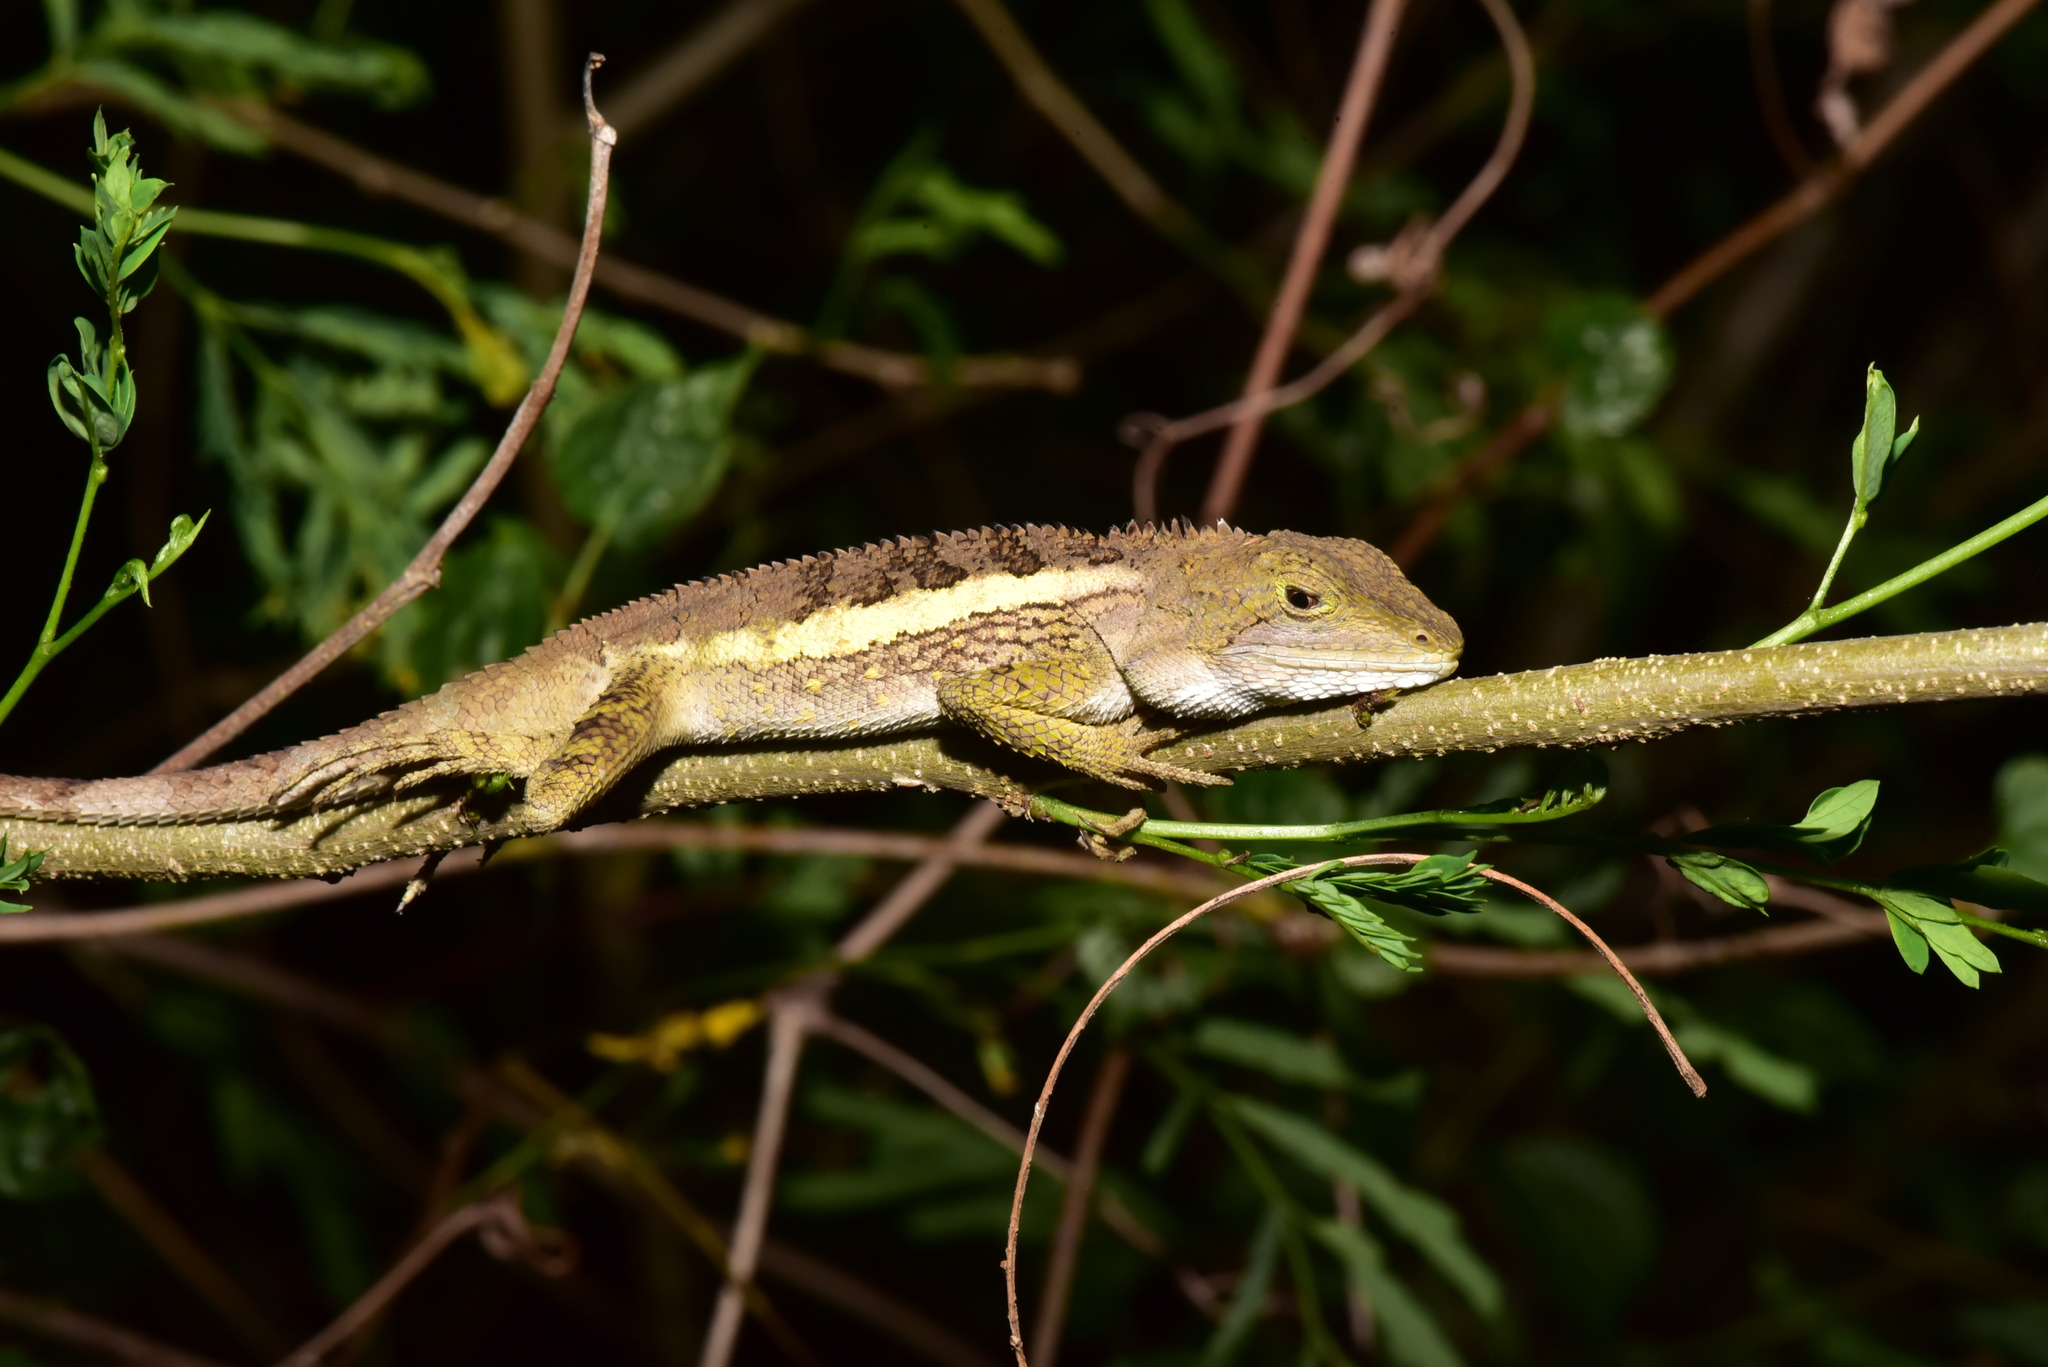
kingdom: Animalia
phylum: Chordata
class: Squamata
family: Agamidae
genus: Diploderma
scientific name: Diploderma swinhonis
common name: Taiwan japalure
